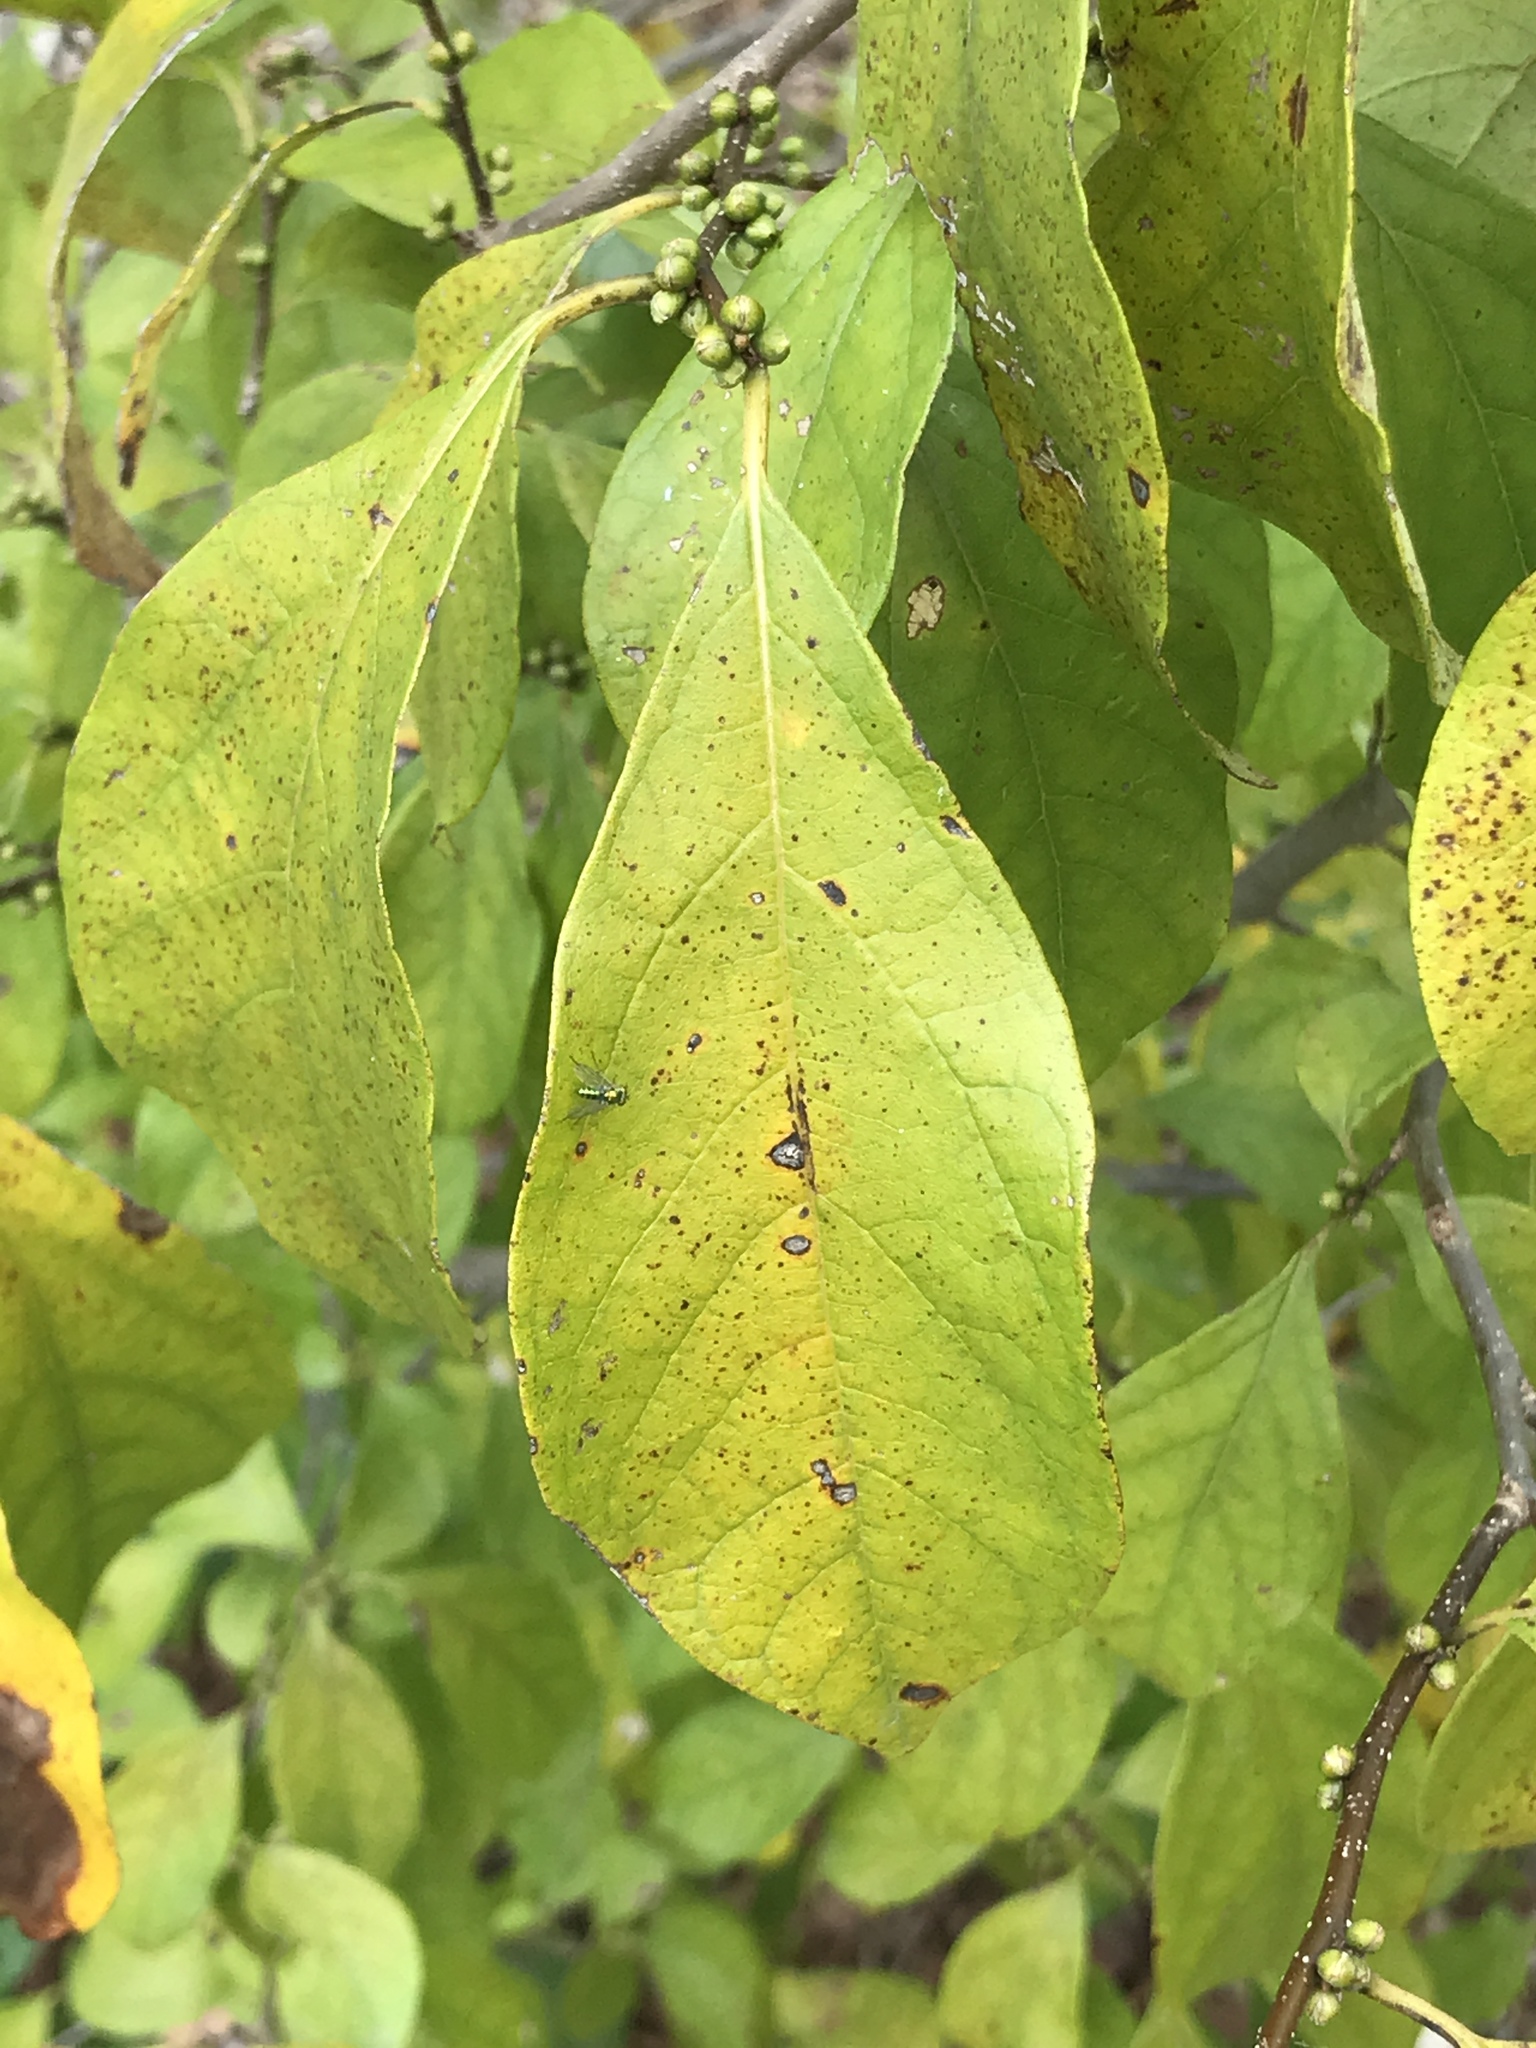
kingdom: Plantae
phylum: Tracheophyta
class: Magnoliopsida
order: Laurales
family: Lauraceae
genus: Lindera
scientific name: Lindera benzoin
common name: Spicebush
